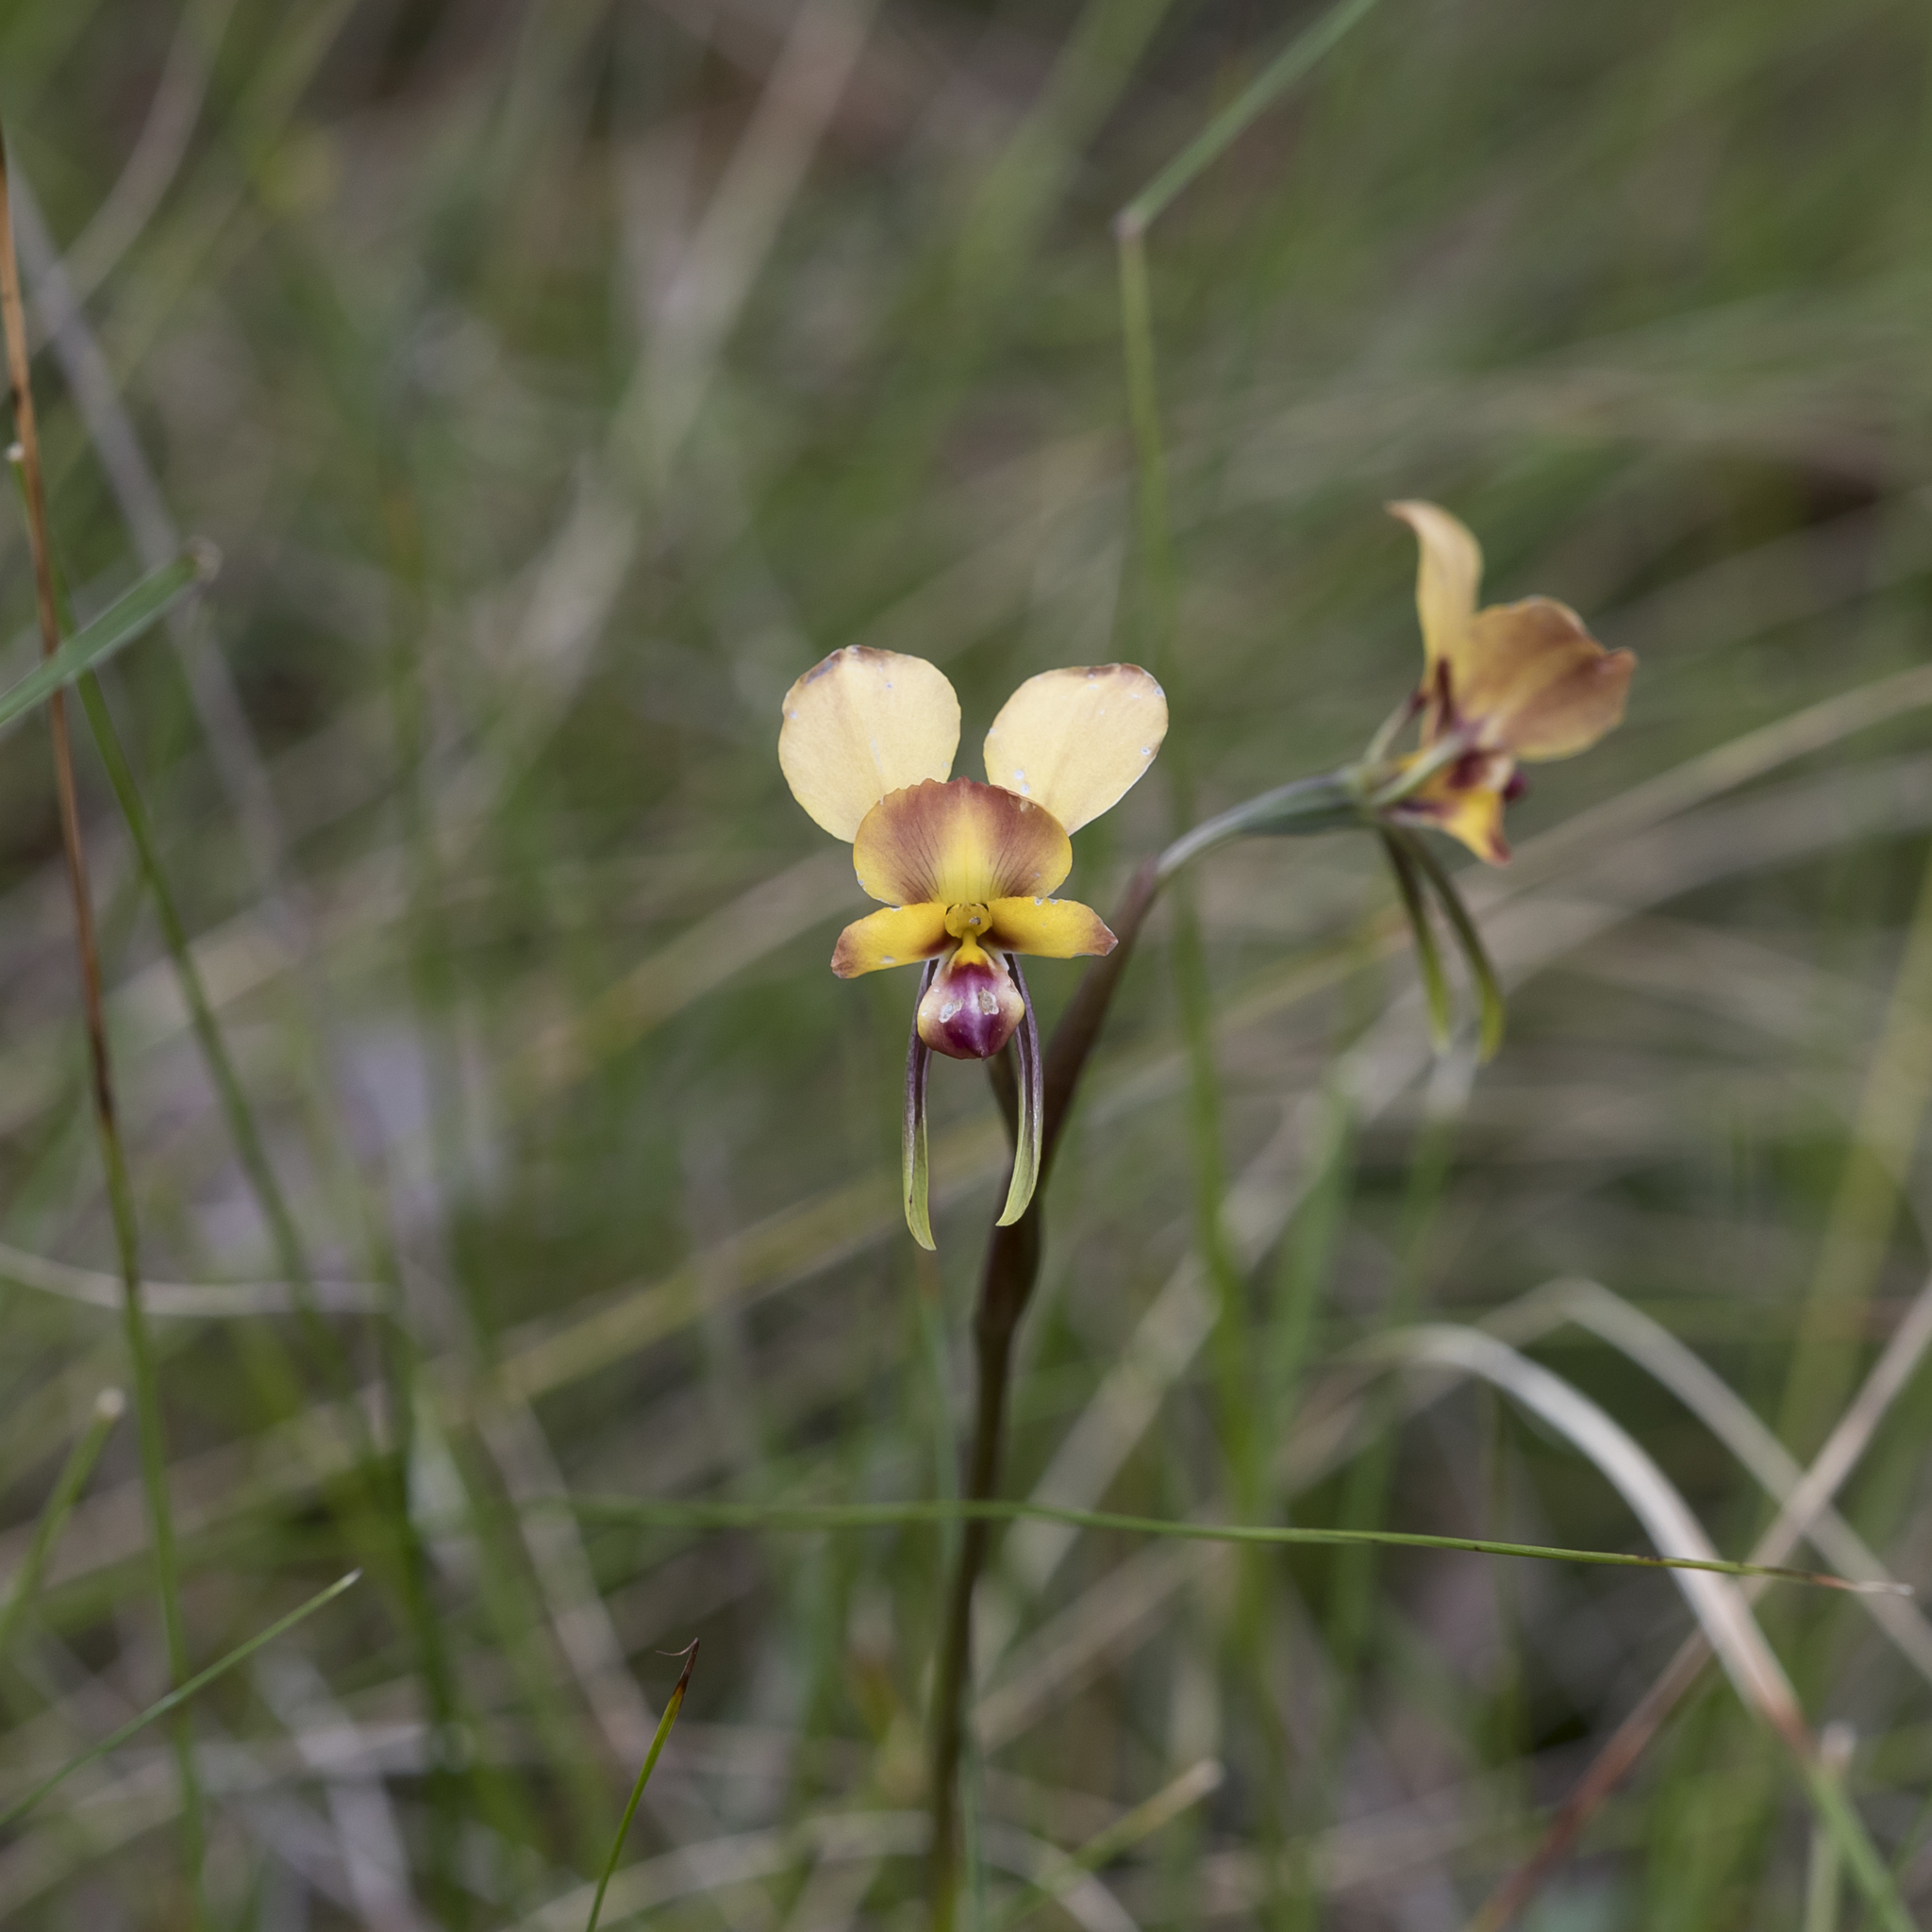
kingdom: Plantae
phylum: Tracheophyta
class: Liliopsida
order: Asparagales
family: Orchidaceae
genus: Diuris
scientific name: Diuris orientis
